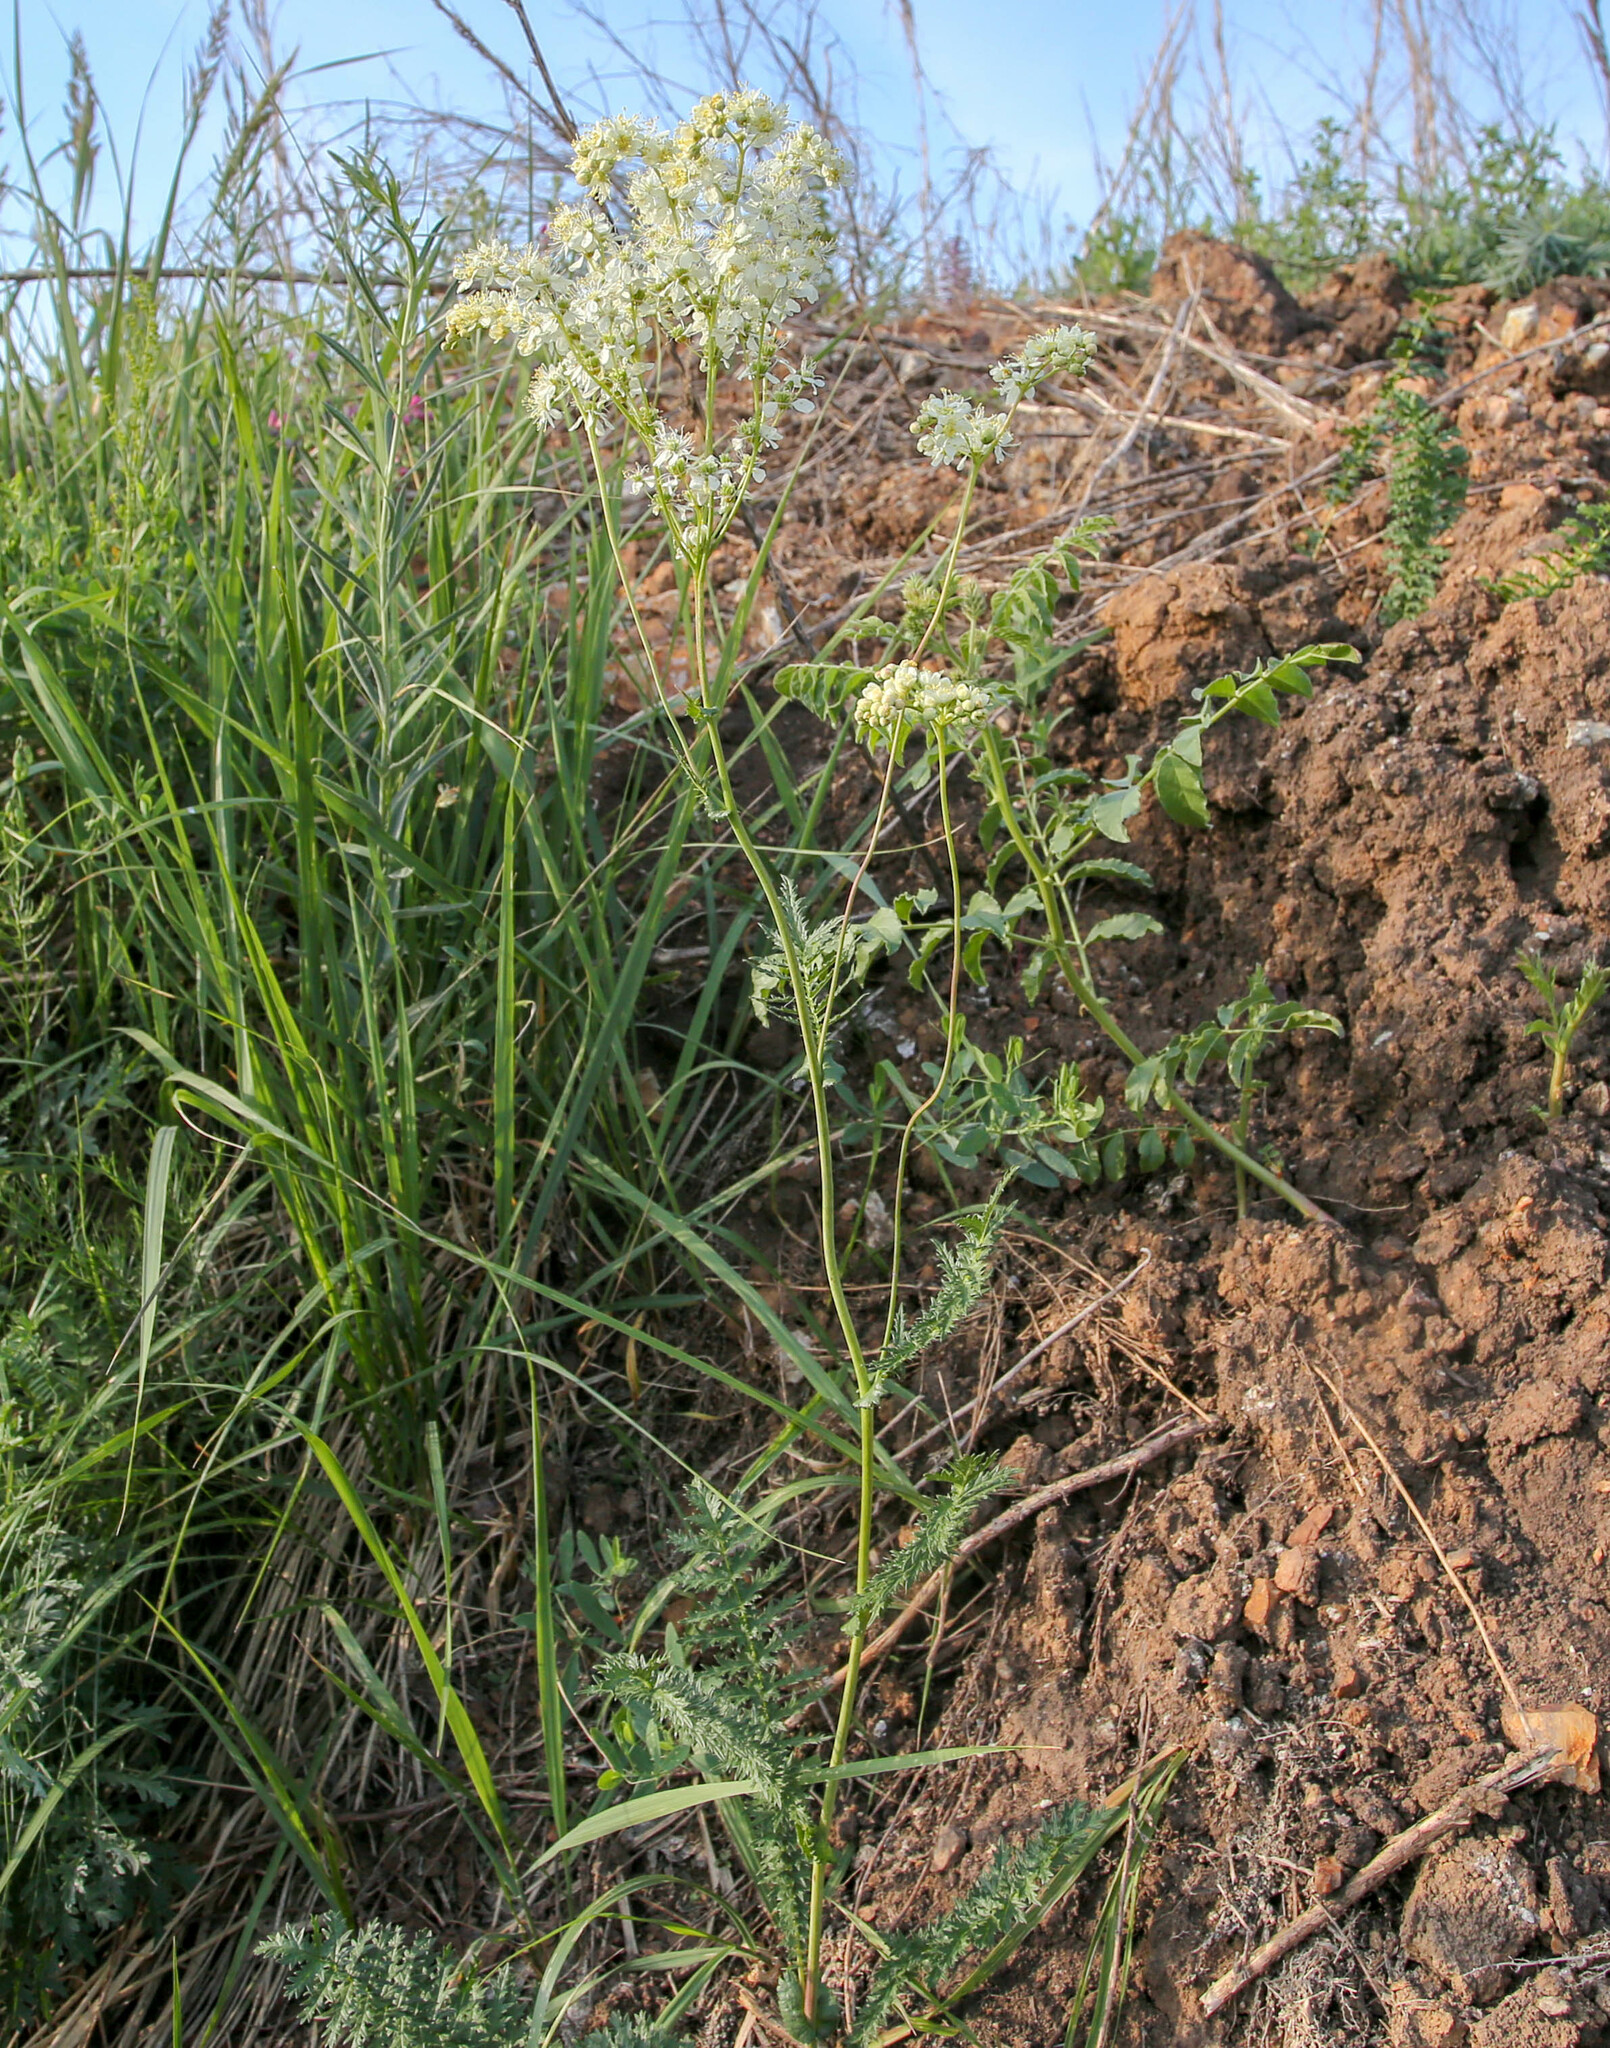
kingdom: Plantae
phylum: Tracheophyta
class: Magnoliopsida
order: Rosales
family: Rosaceae
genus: Filipendula
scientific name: Filipendula vulgaris
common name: Dropwort
